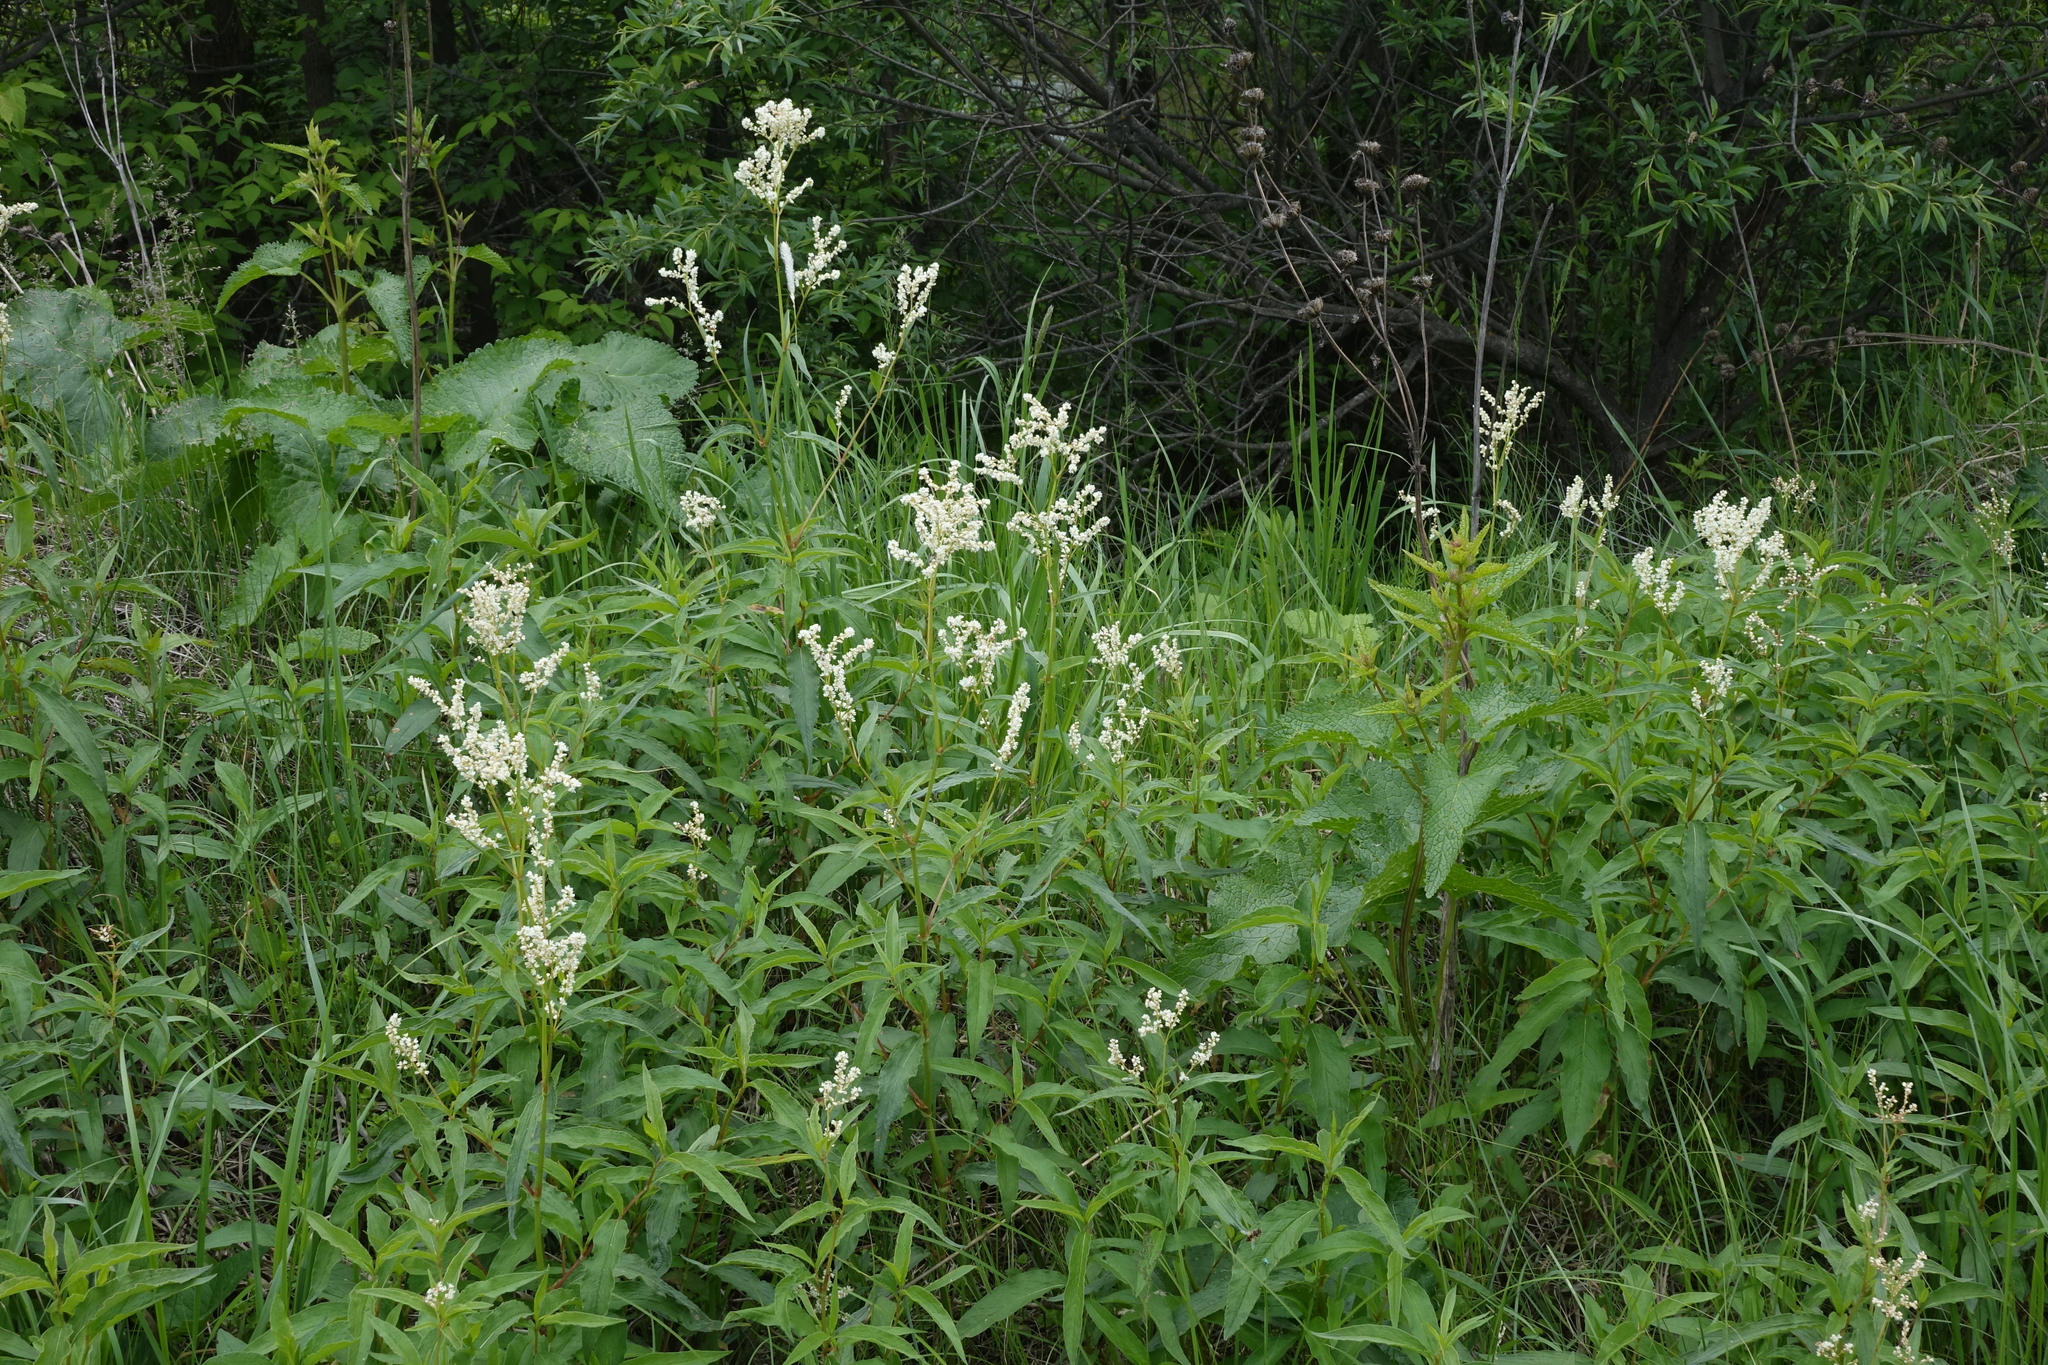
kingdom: Plantae
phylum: Tracheophyta
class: Magnoliopsida
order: Caryophyllales
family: Polygonaceae
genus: Koenigia
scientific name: Koenigia alpina
